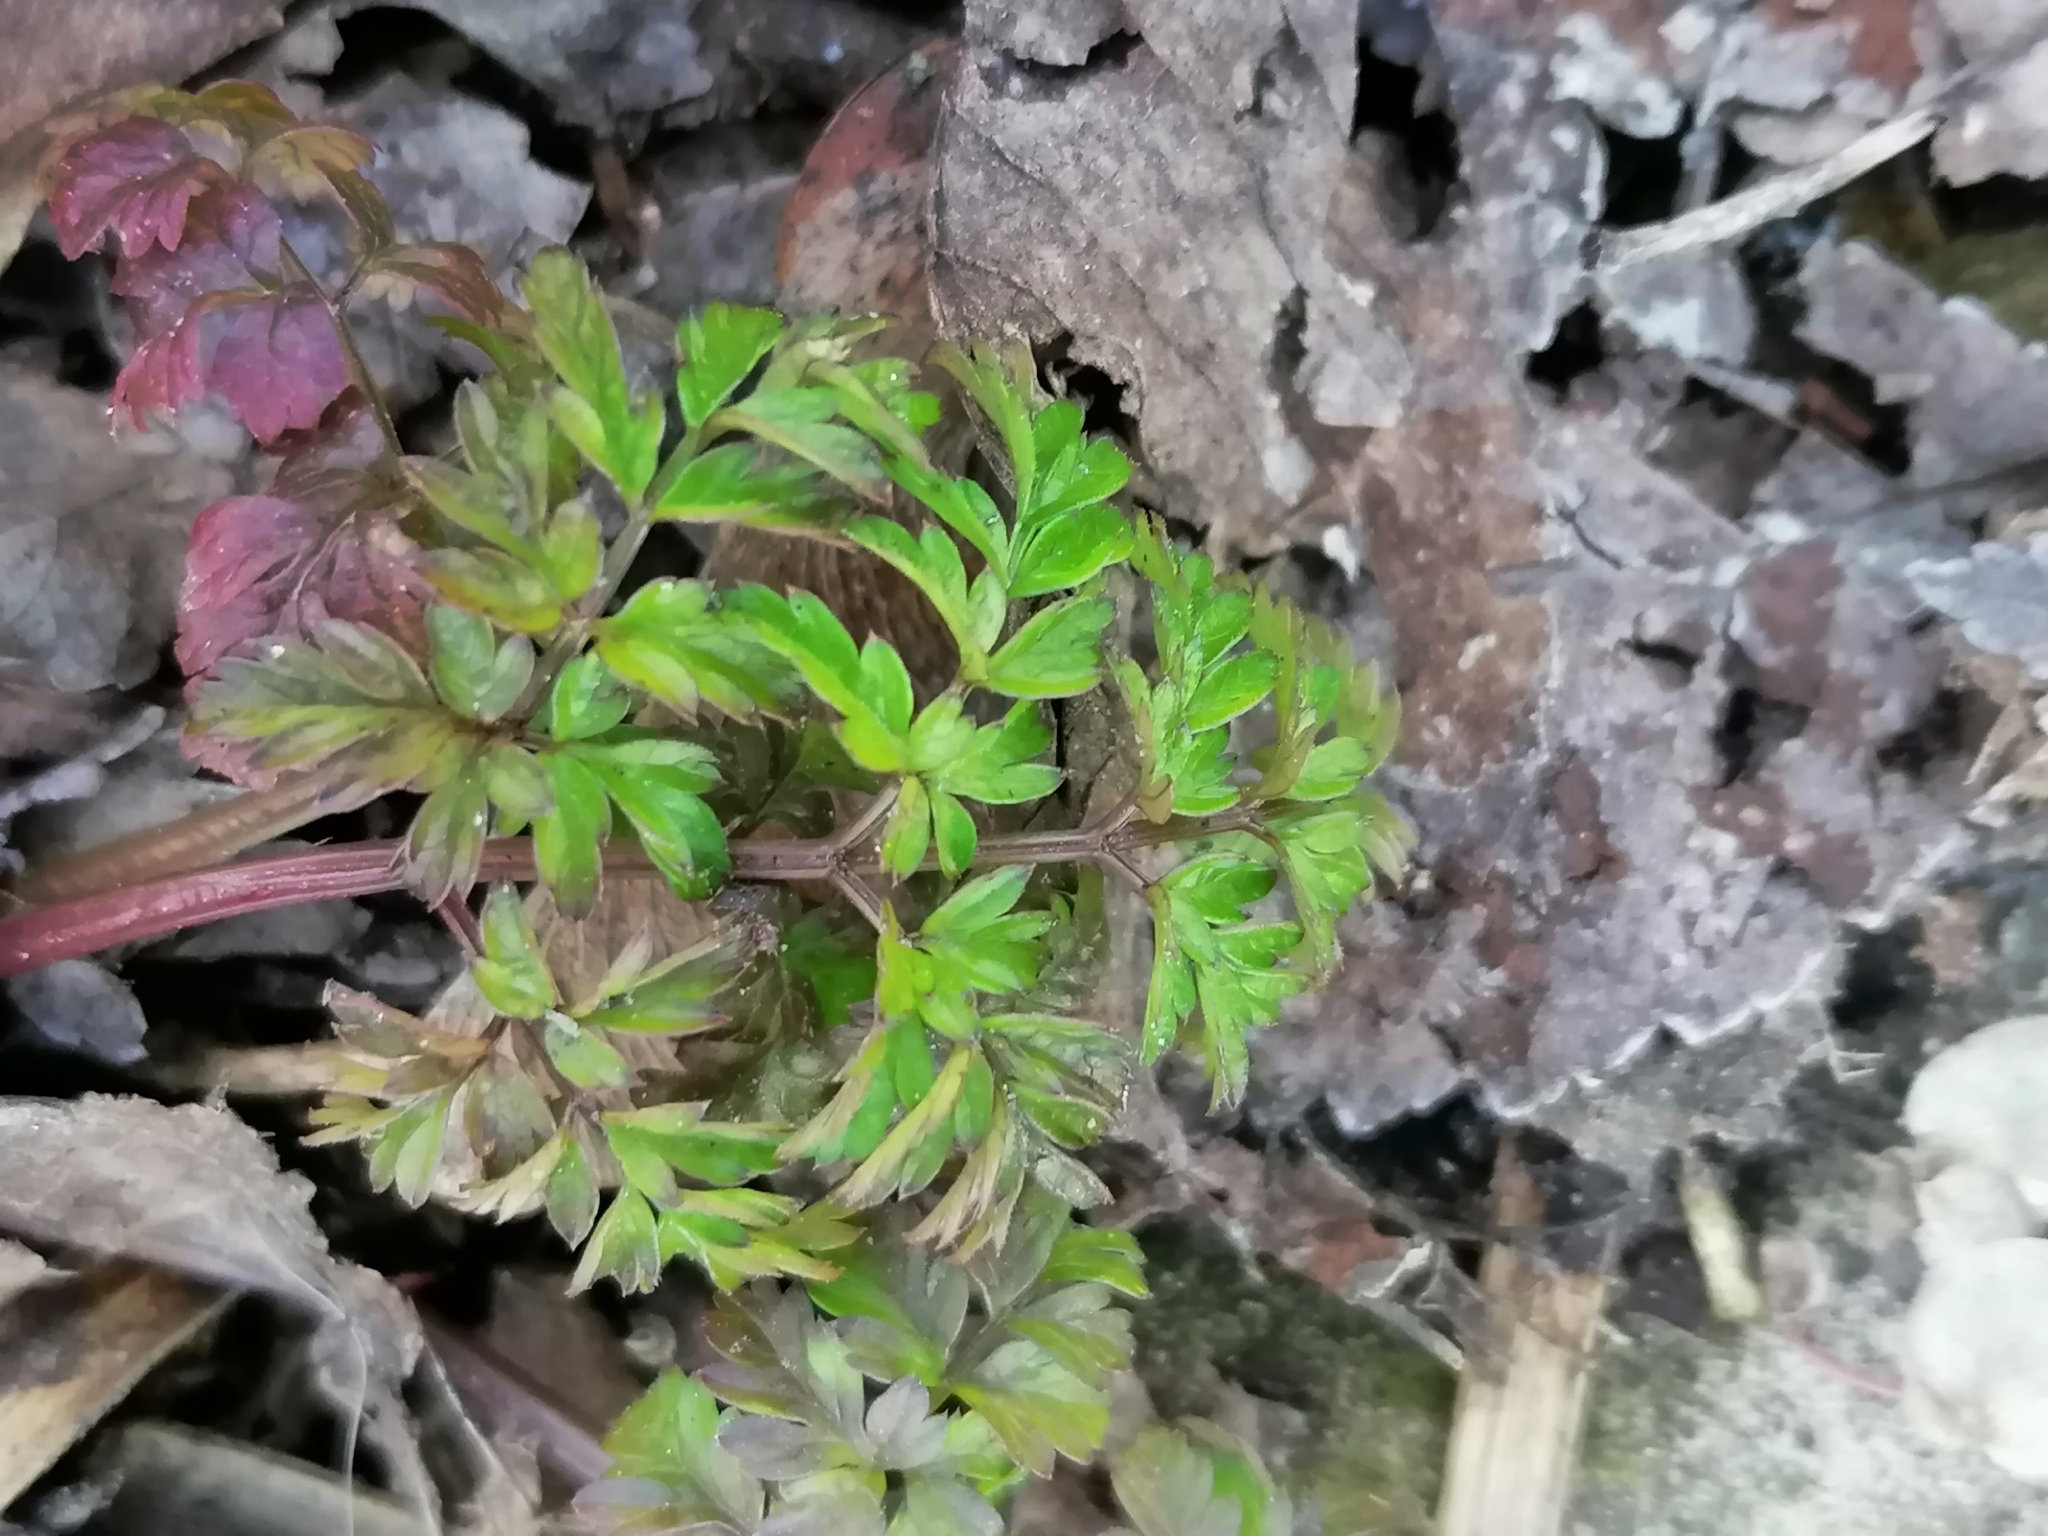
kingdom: Plantae
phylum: Tracheophyta
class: Magnoliopsida
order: Apiales
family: Apiaceae
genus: Chaerophyllum
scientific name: Chaerophyllum temulum
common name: Rough chervil
